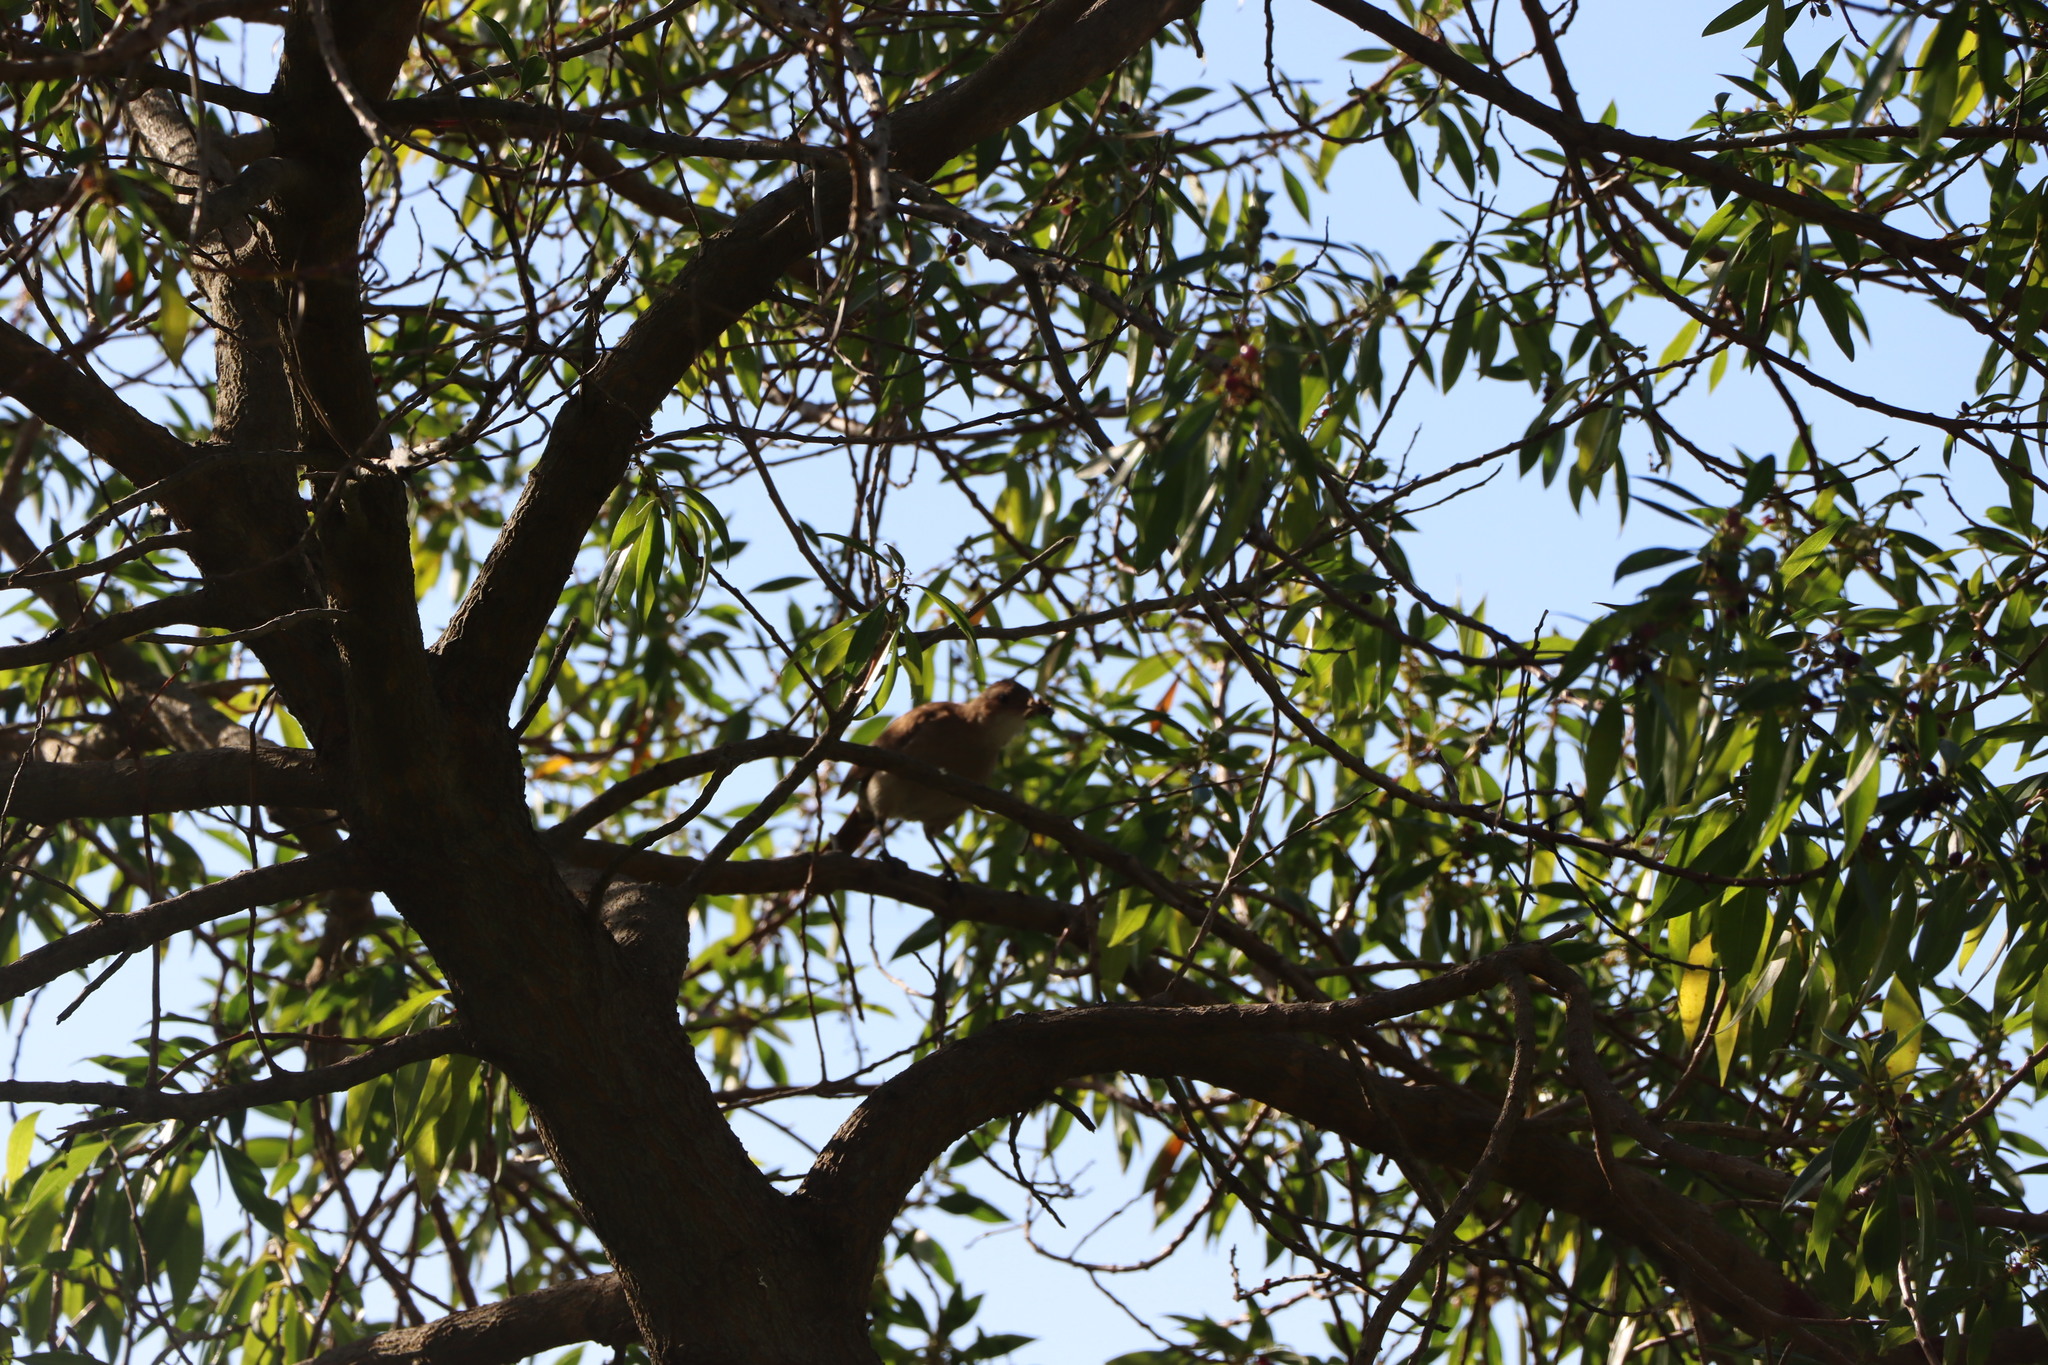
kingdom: Animalia
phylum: Chordata
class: Aves
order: Passeriformes
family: Furnariidae
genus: Furnarius
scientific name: Furnarius rufus
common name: Rufous hornero
